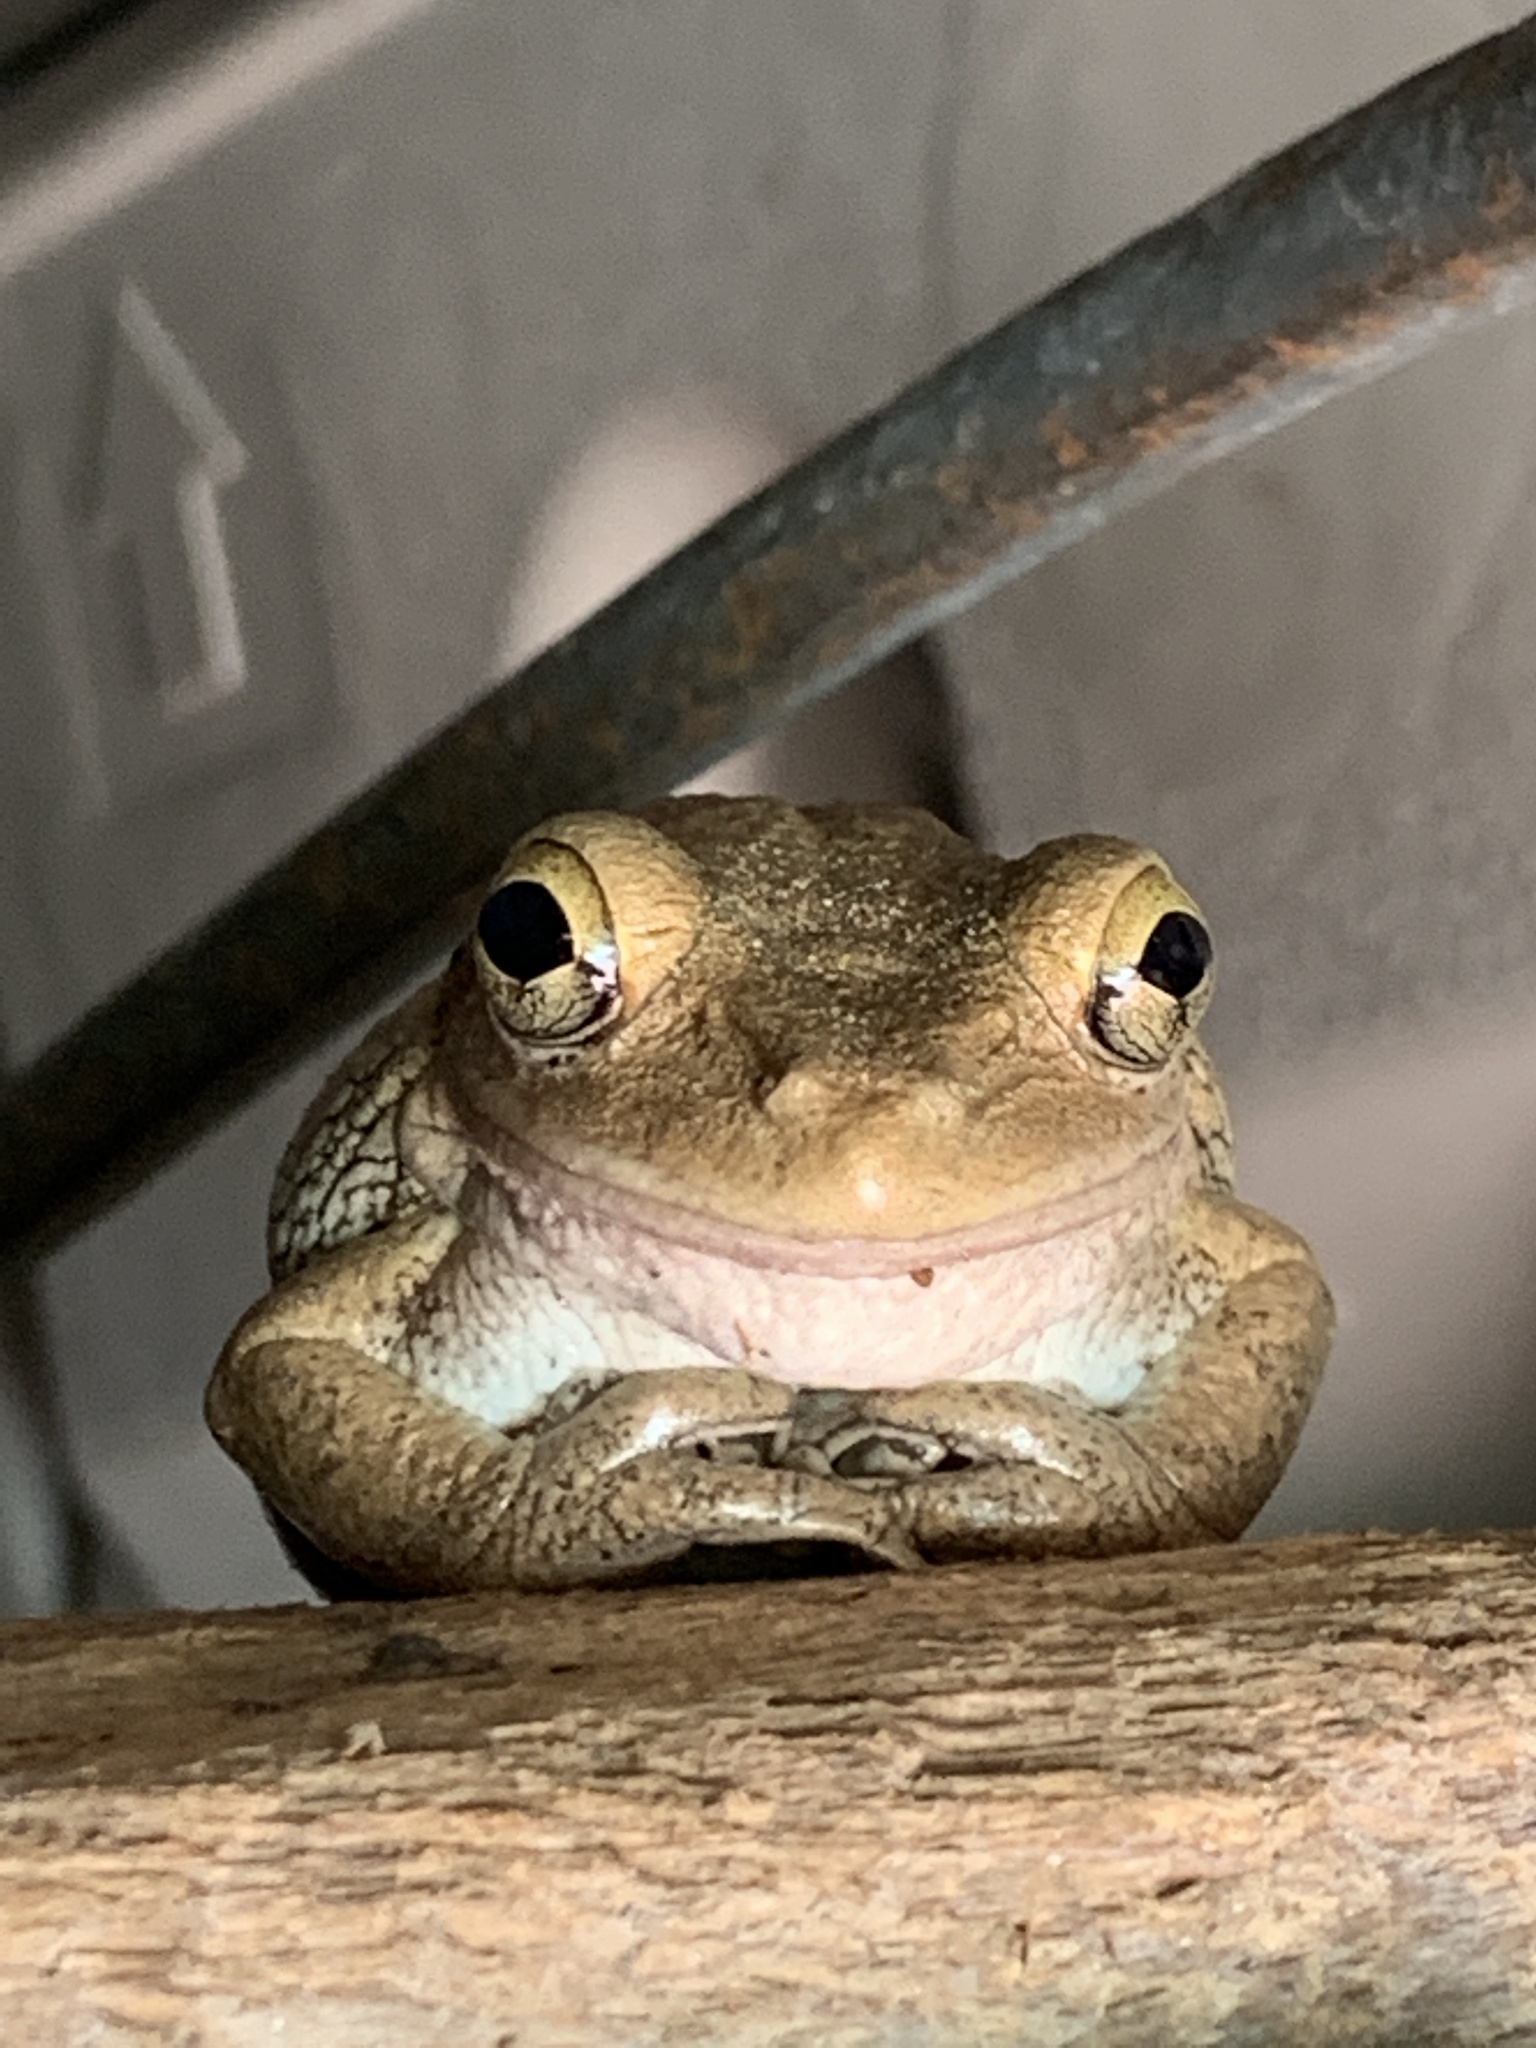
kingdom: Animalia
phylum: Chordata
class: Amphibia
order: Anura
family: Hylidae
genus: Osteopilus
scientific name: Osteopilus septentrionalis
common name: Cuban treefrog
